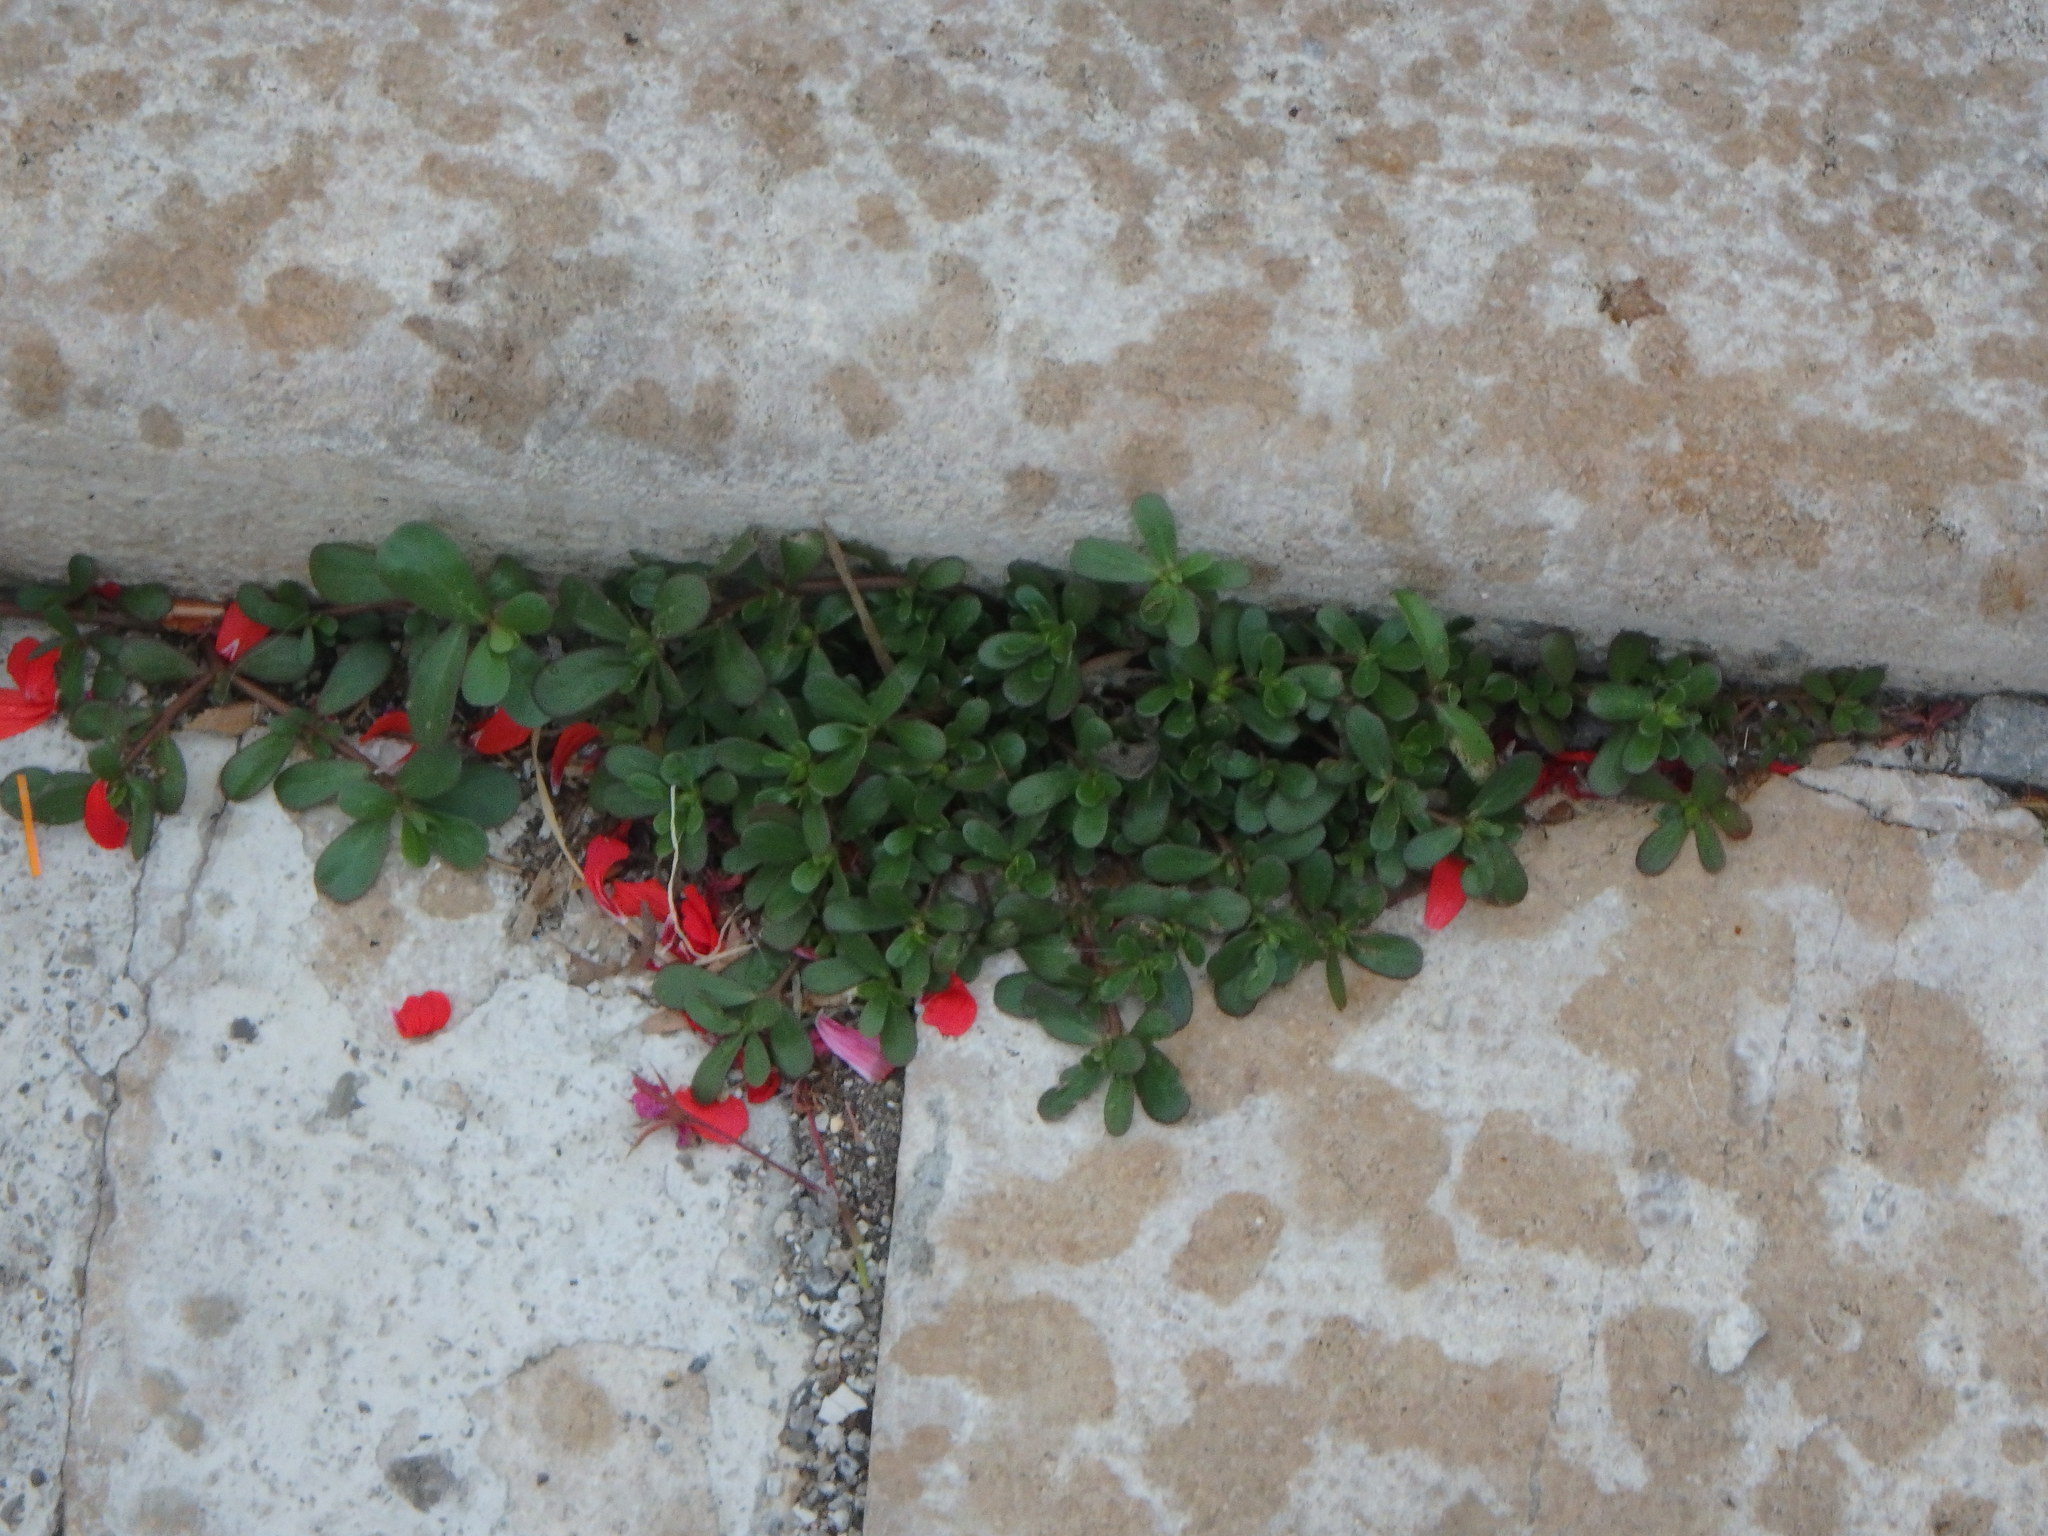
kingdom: Plantae
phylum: Tracheophyta
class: Magnoliopsida
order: Caryophyllales
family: Portulacaceae
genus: Portulaca
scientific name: Portulaca oleracea
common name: Common purslane
